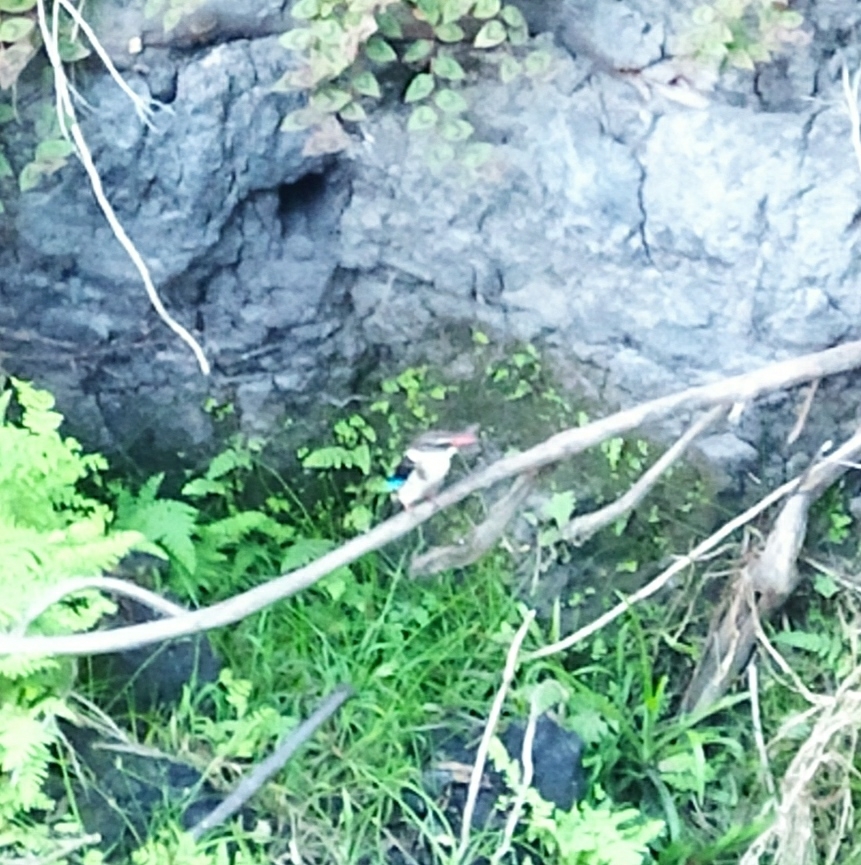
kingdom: Animalia
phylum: Chordata
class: Aves
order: Coraciiformes
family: Alcedinidae
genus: Halcyon
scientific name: Halcyon albiventris
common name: Brown-hooded kingfisher
